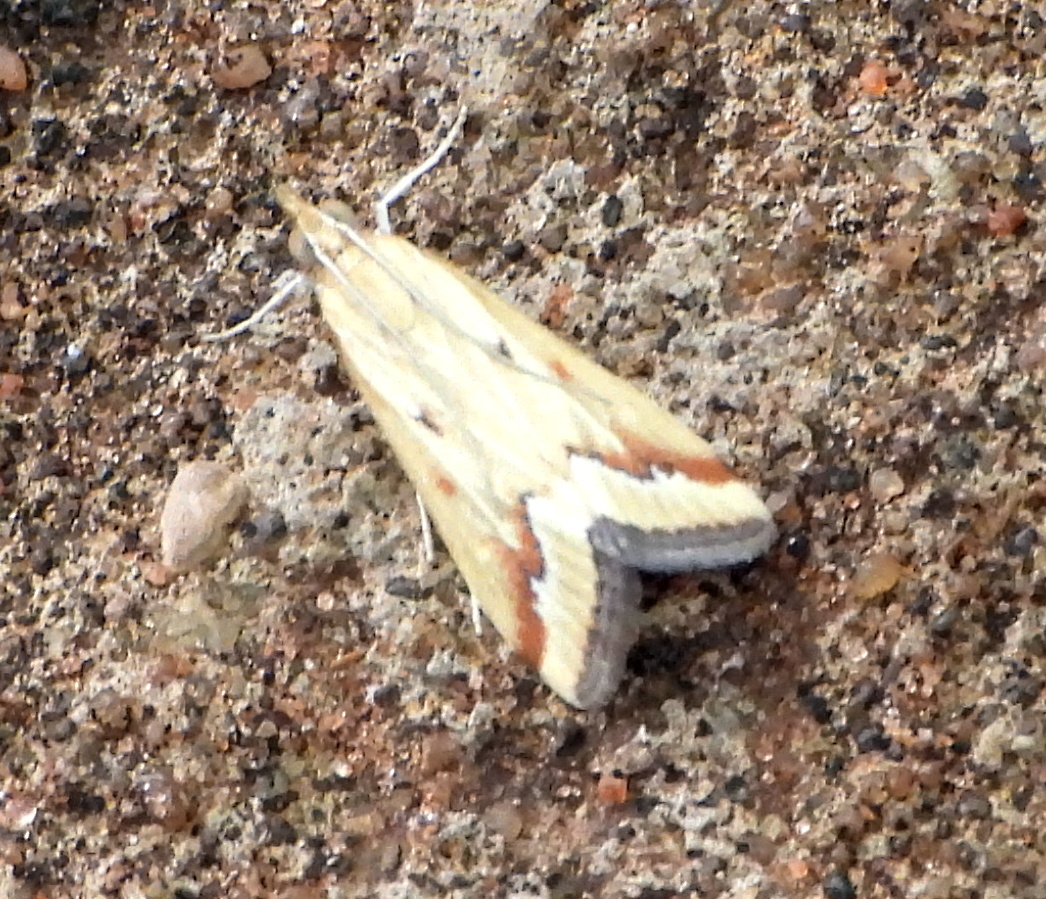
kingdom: Animalia
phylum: Arthropoda
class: Insecta
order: Lepidoptera
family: Crambidae
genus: Achyra
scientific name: Achyra coelatalis
